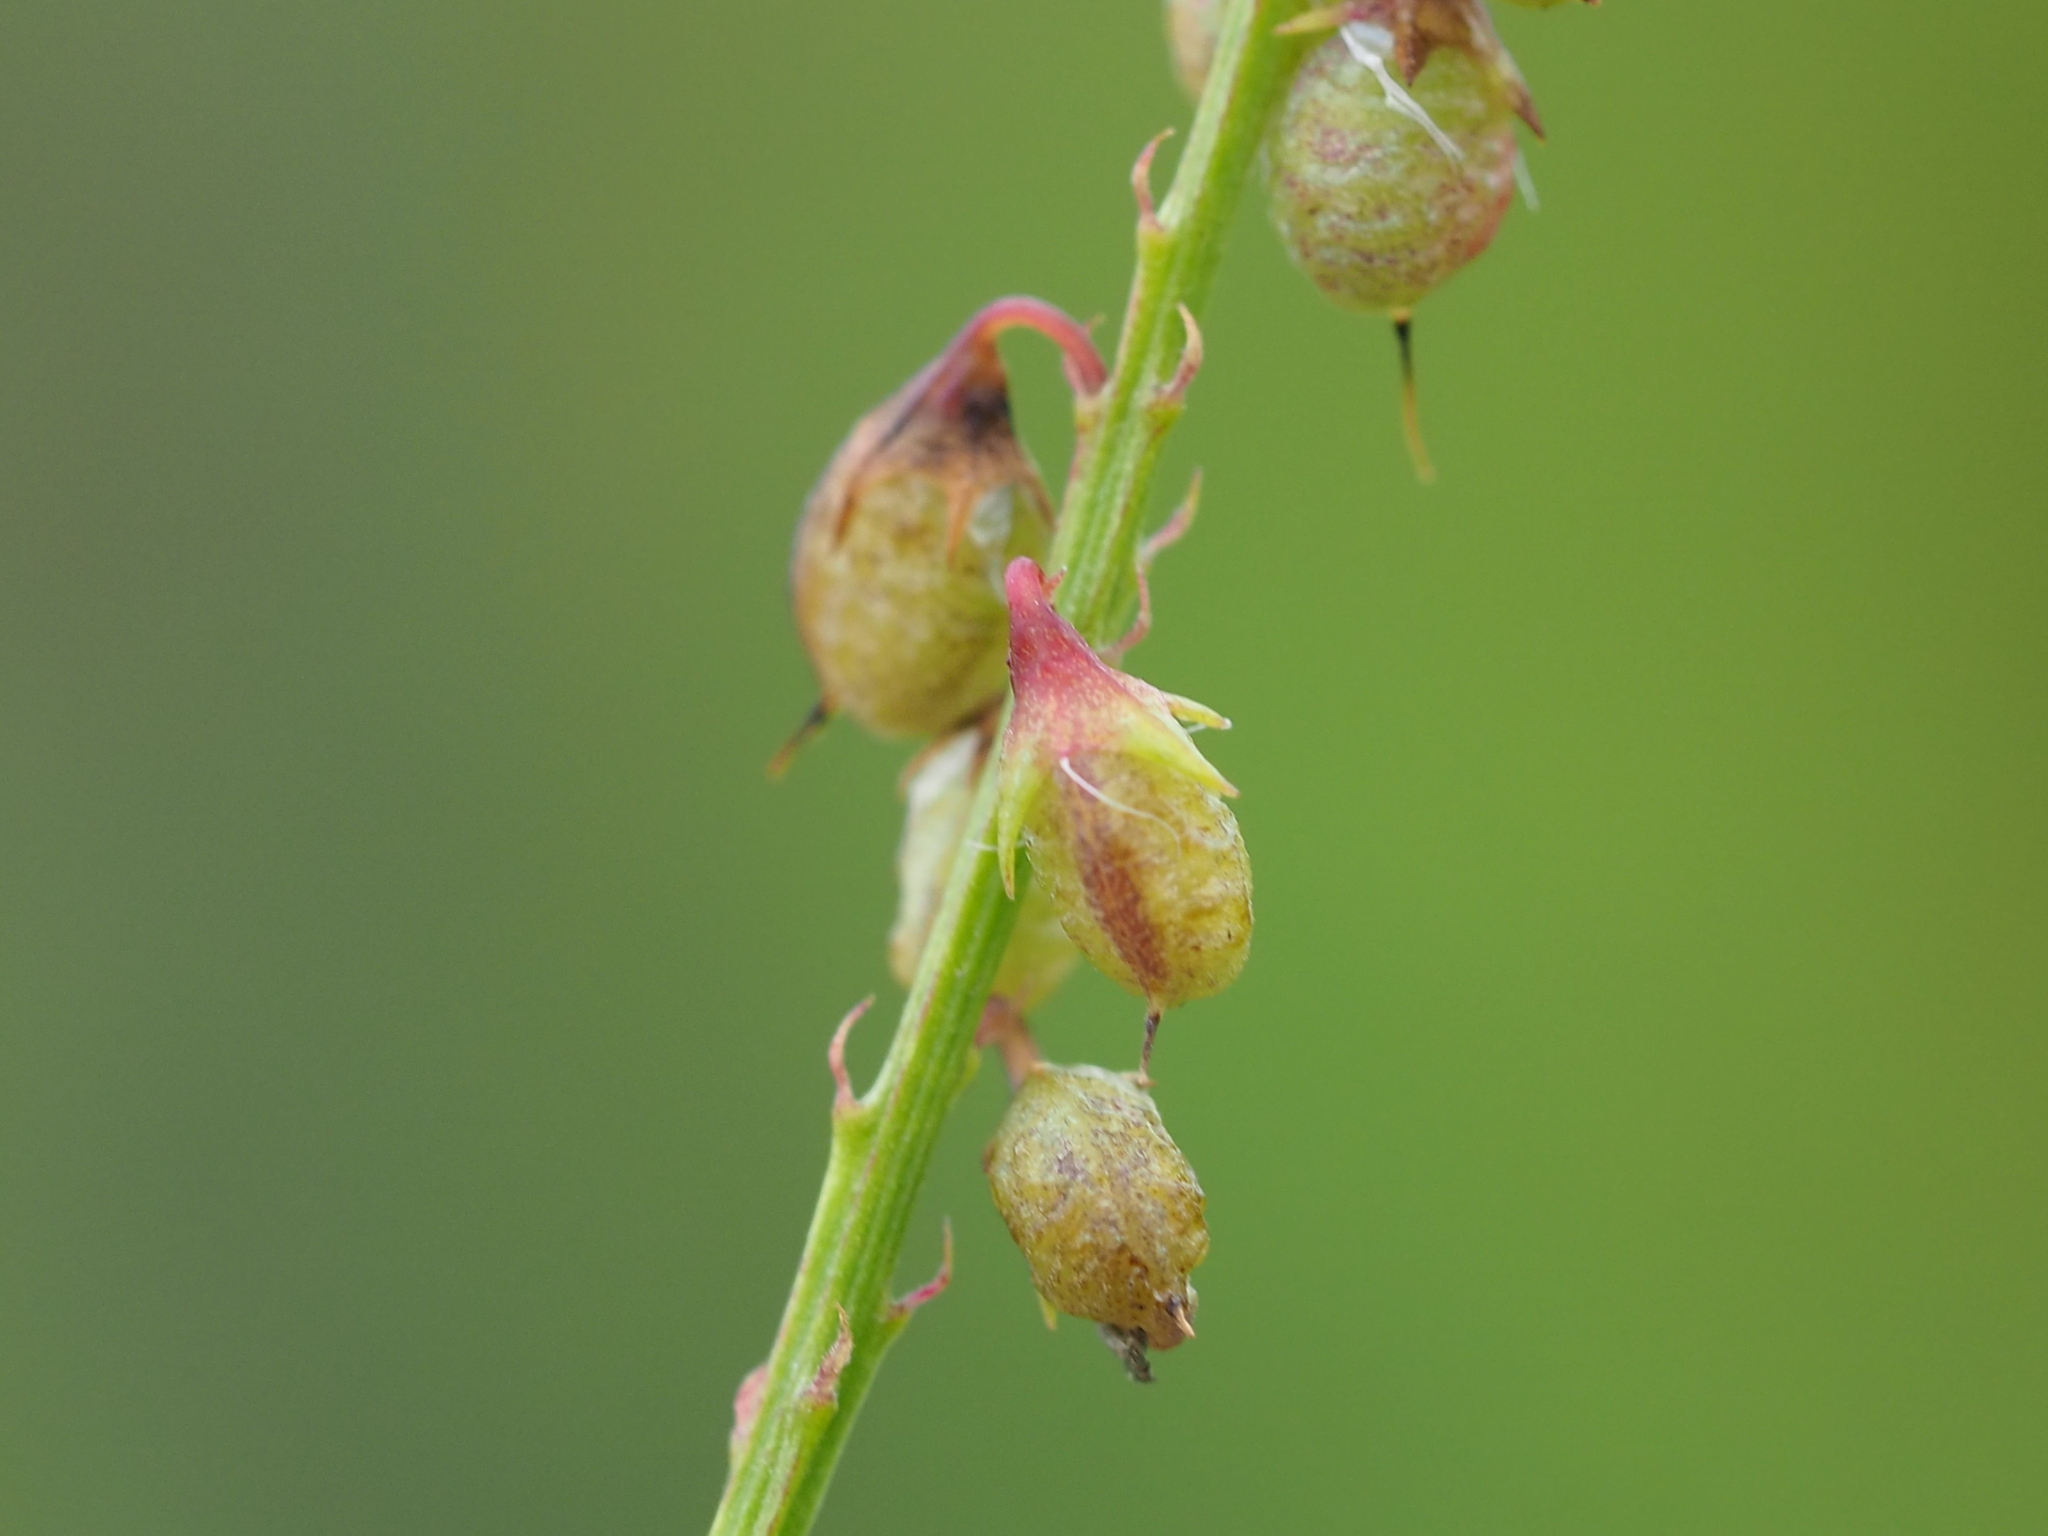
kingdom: Plantae
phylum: Tracheophyta
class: Magnoliopsida
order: Fabales
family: Fabaceae
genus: Melilotus
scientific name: Melilotus indicus
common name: Small melilot
